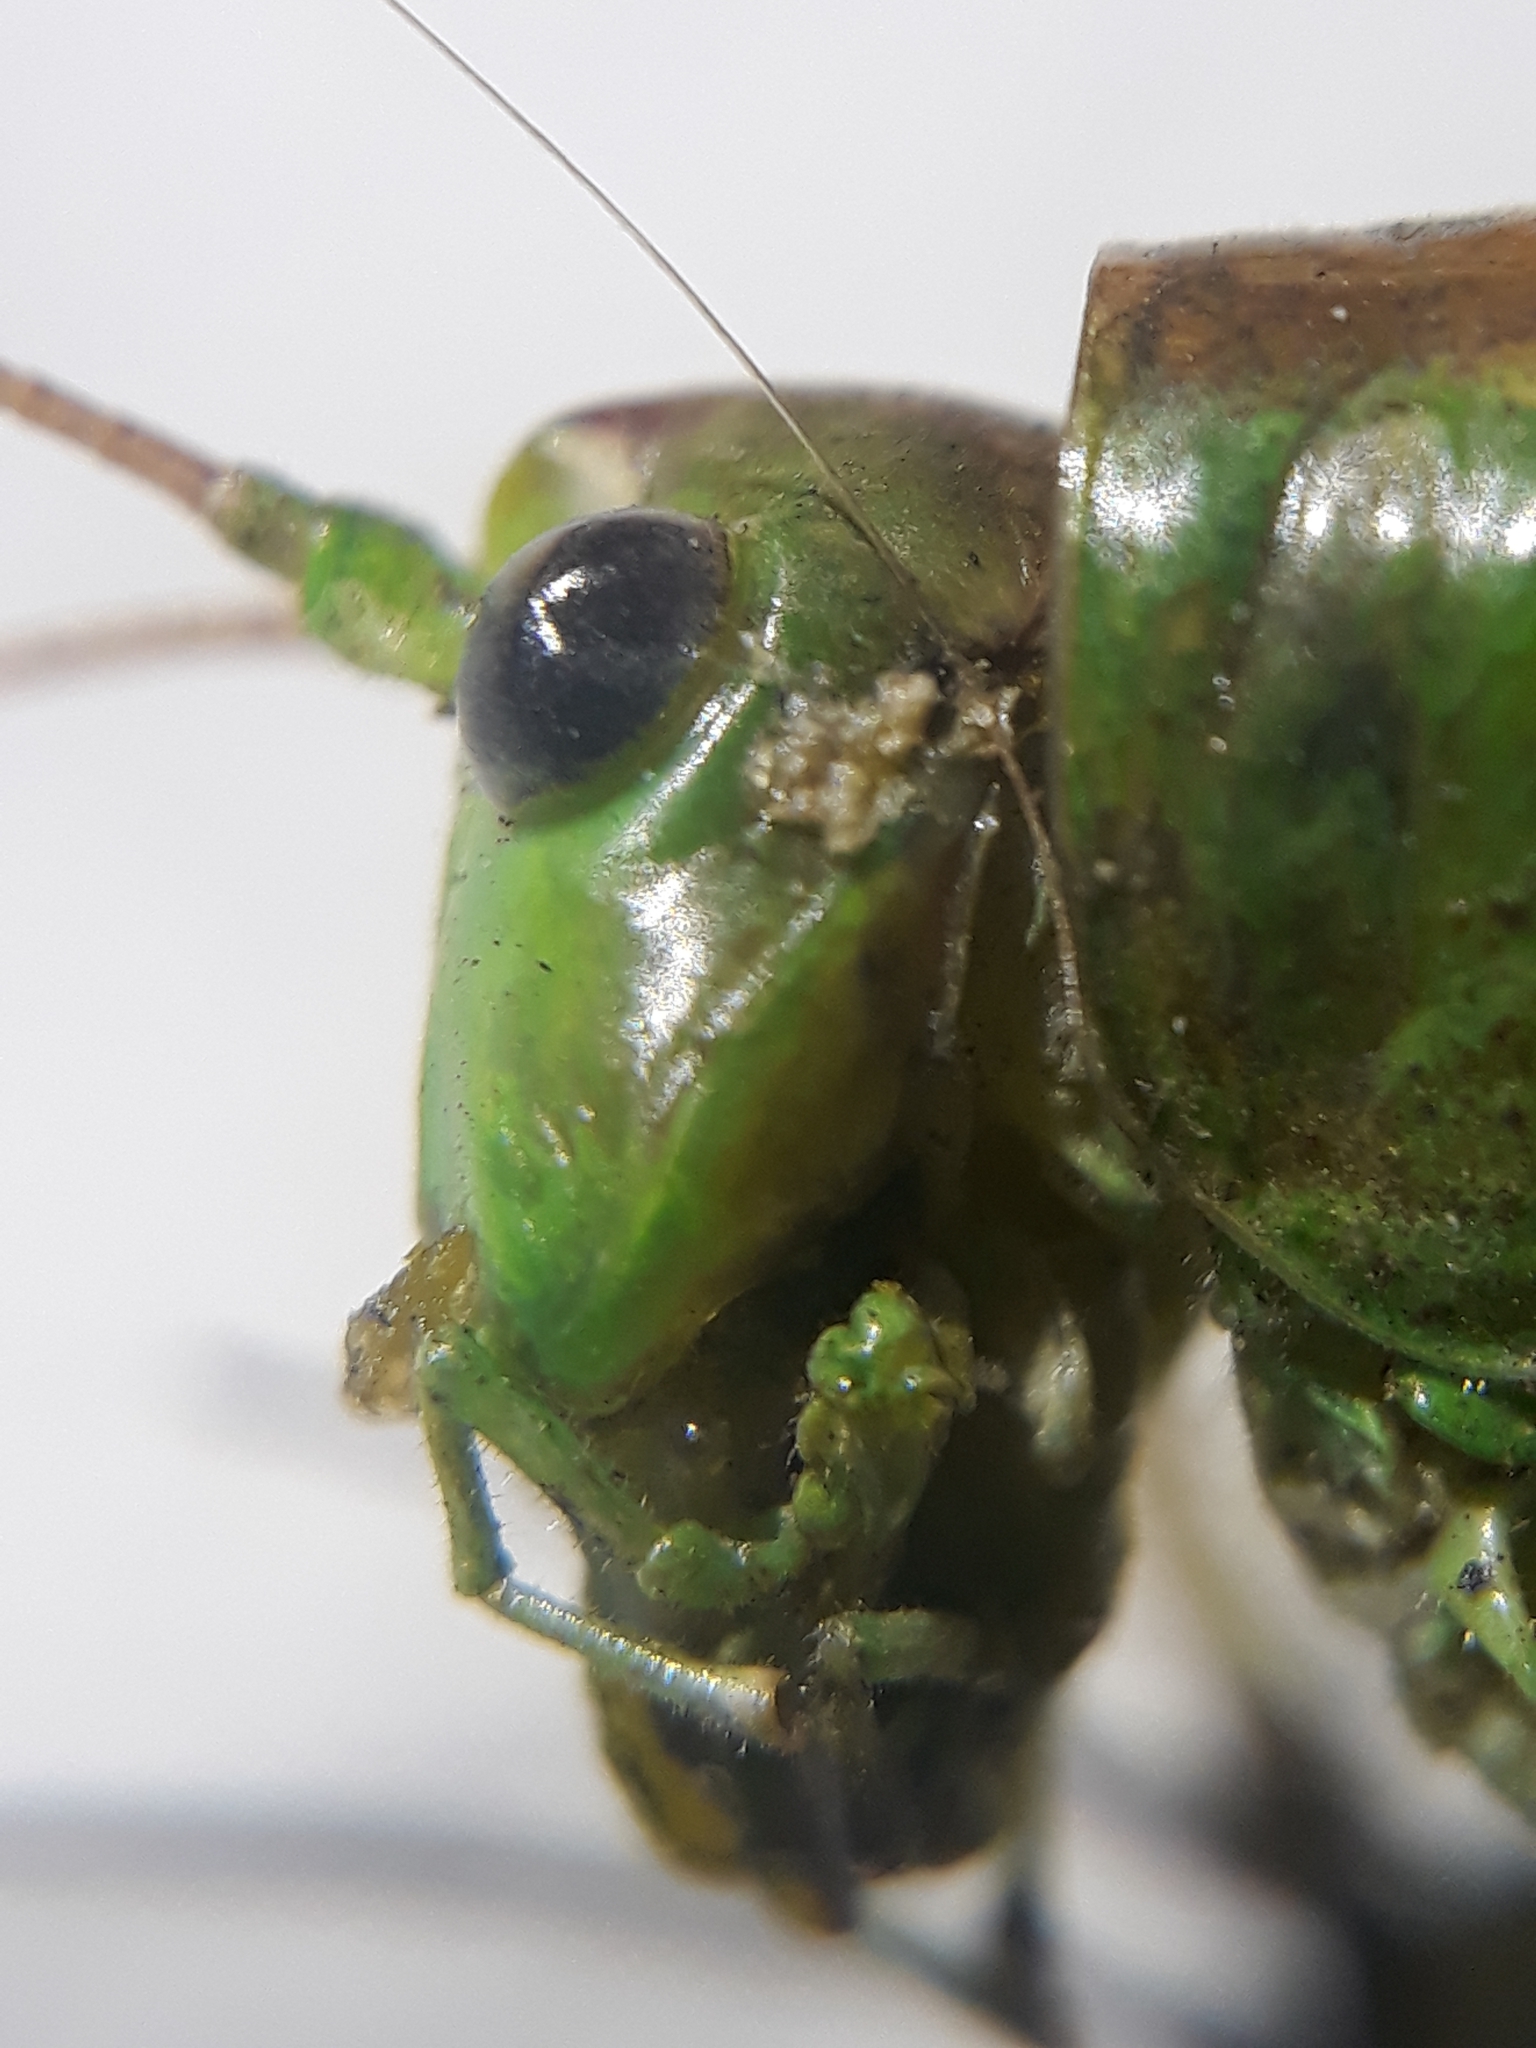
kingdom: Animalia
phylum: Arthropoda
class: Insecta
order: Orthoptera
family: Tettigoniidae
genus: Tettigonia
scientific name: Tettigonia viridissima
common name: Great green bush-cricket
